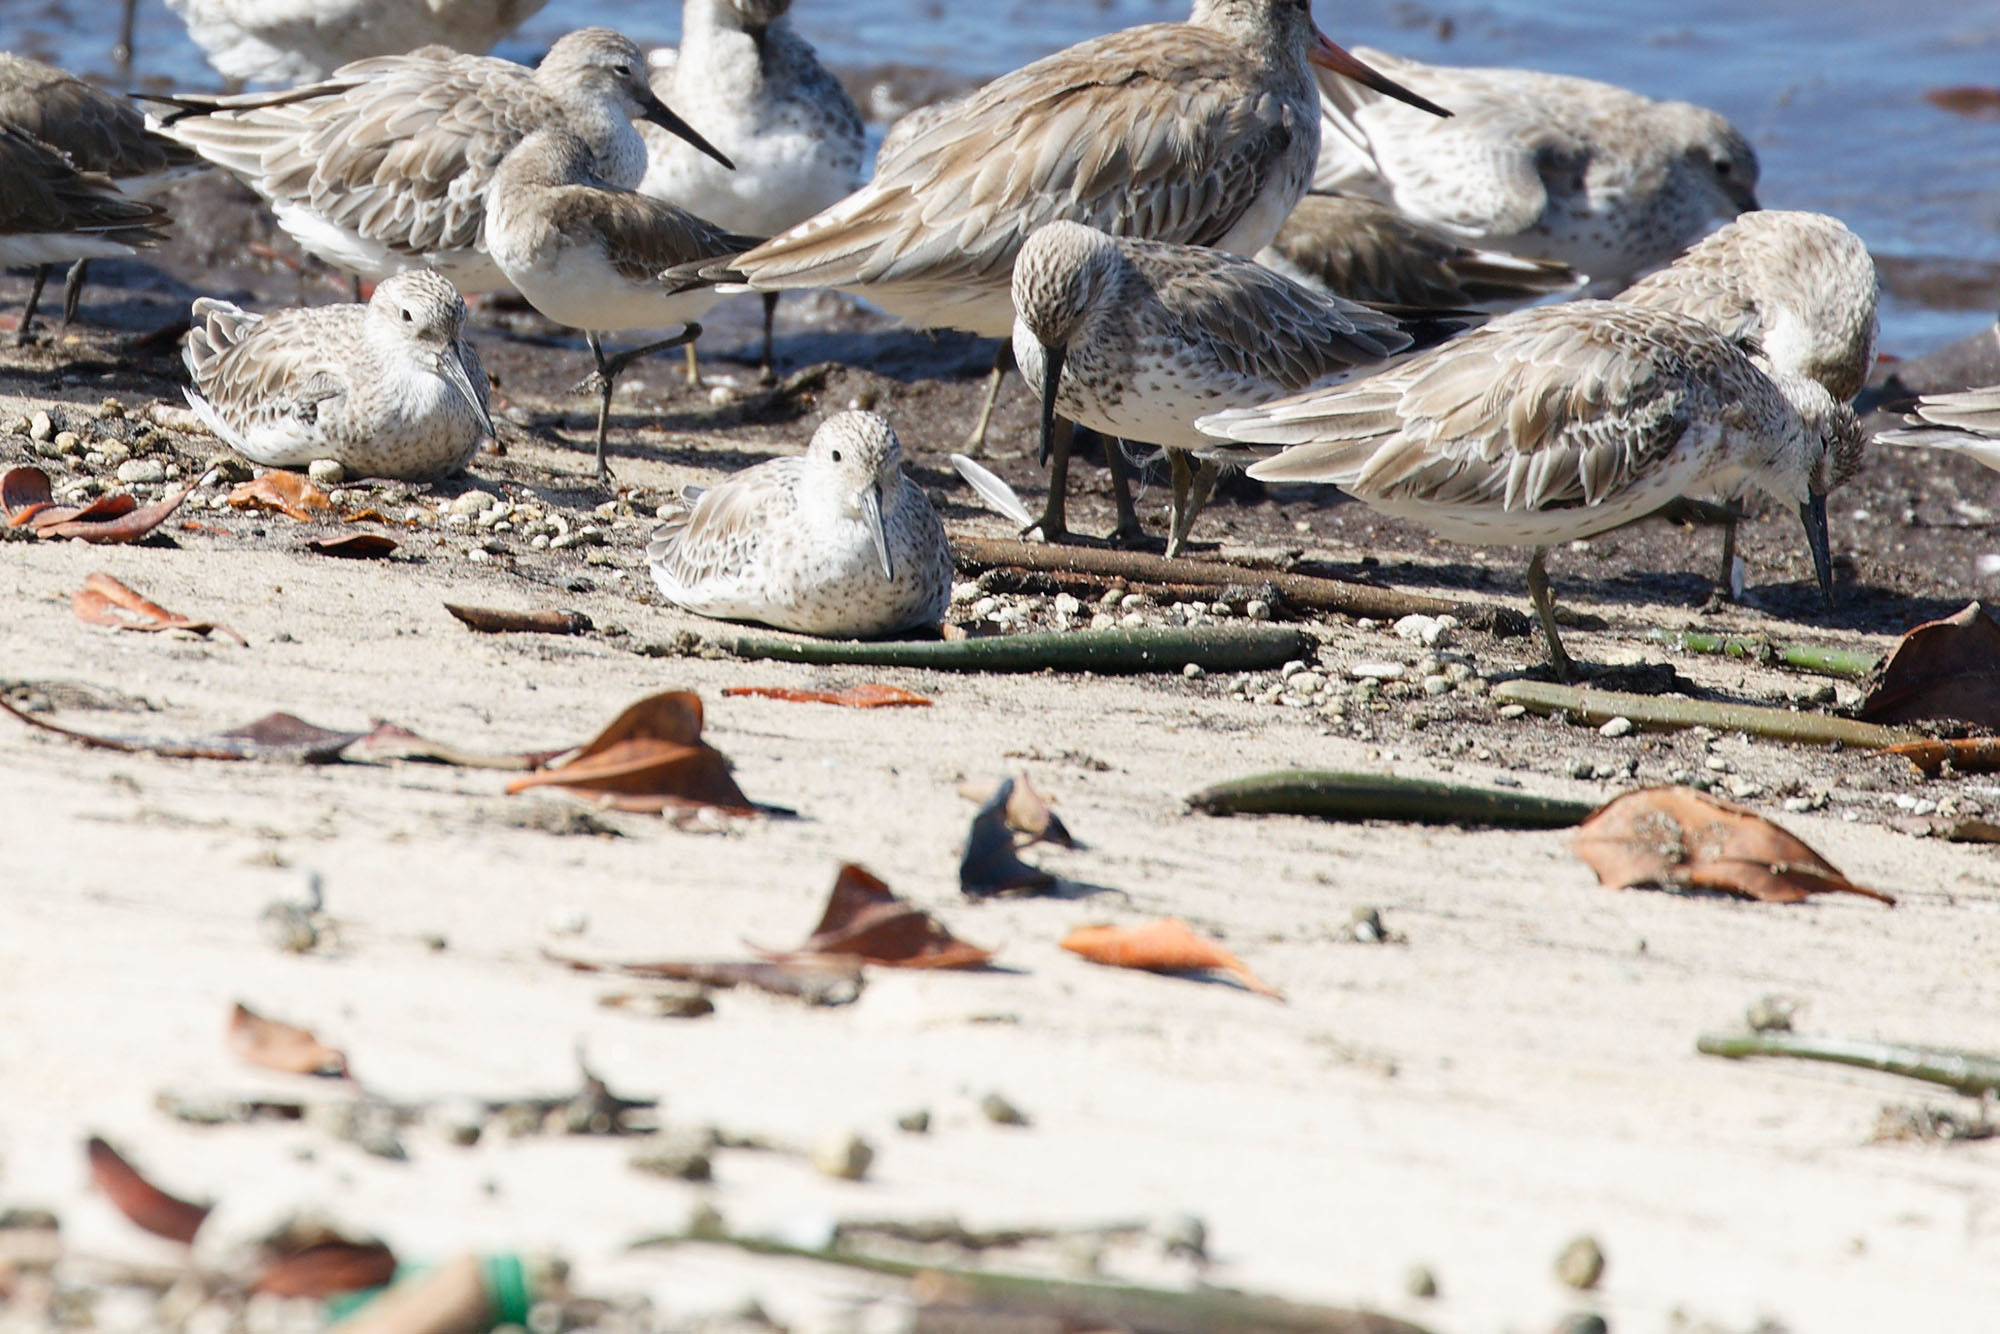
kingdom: Animalia
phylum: Chordata
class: Aves
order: Charadriiformes
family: Scolopacidae
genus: Calidris
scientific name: Calidris tenuirostris
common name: Great knot
